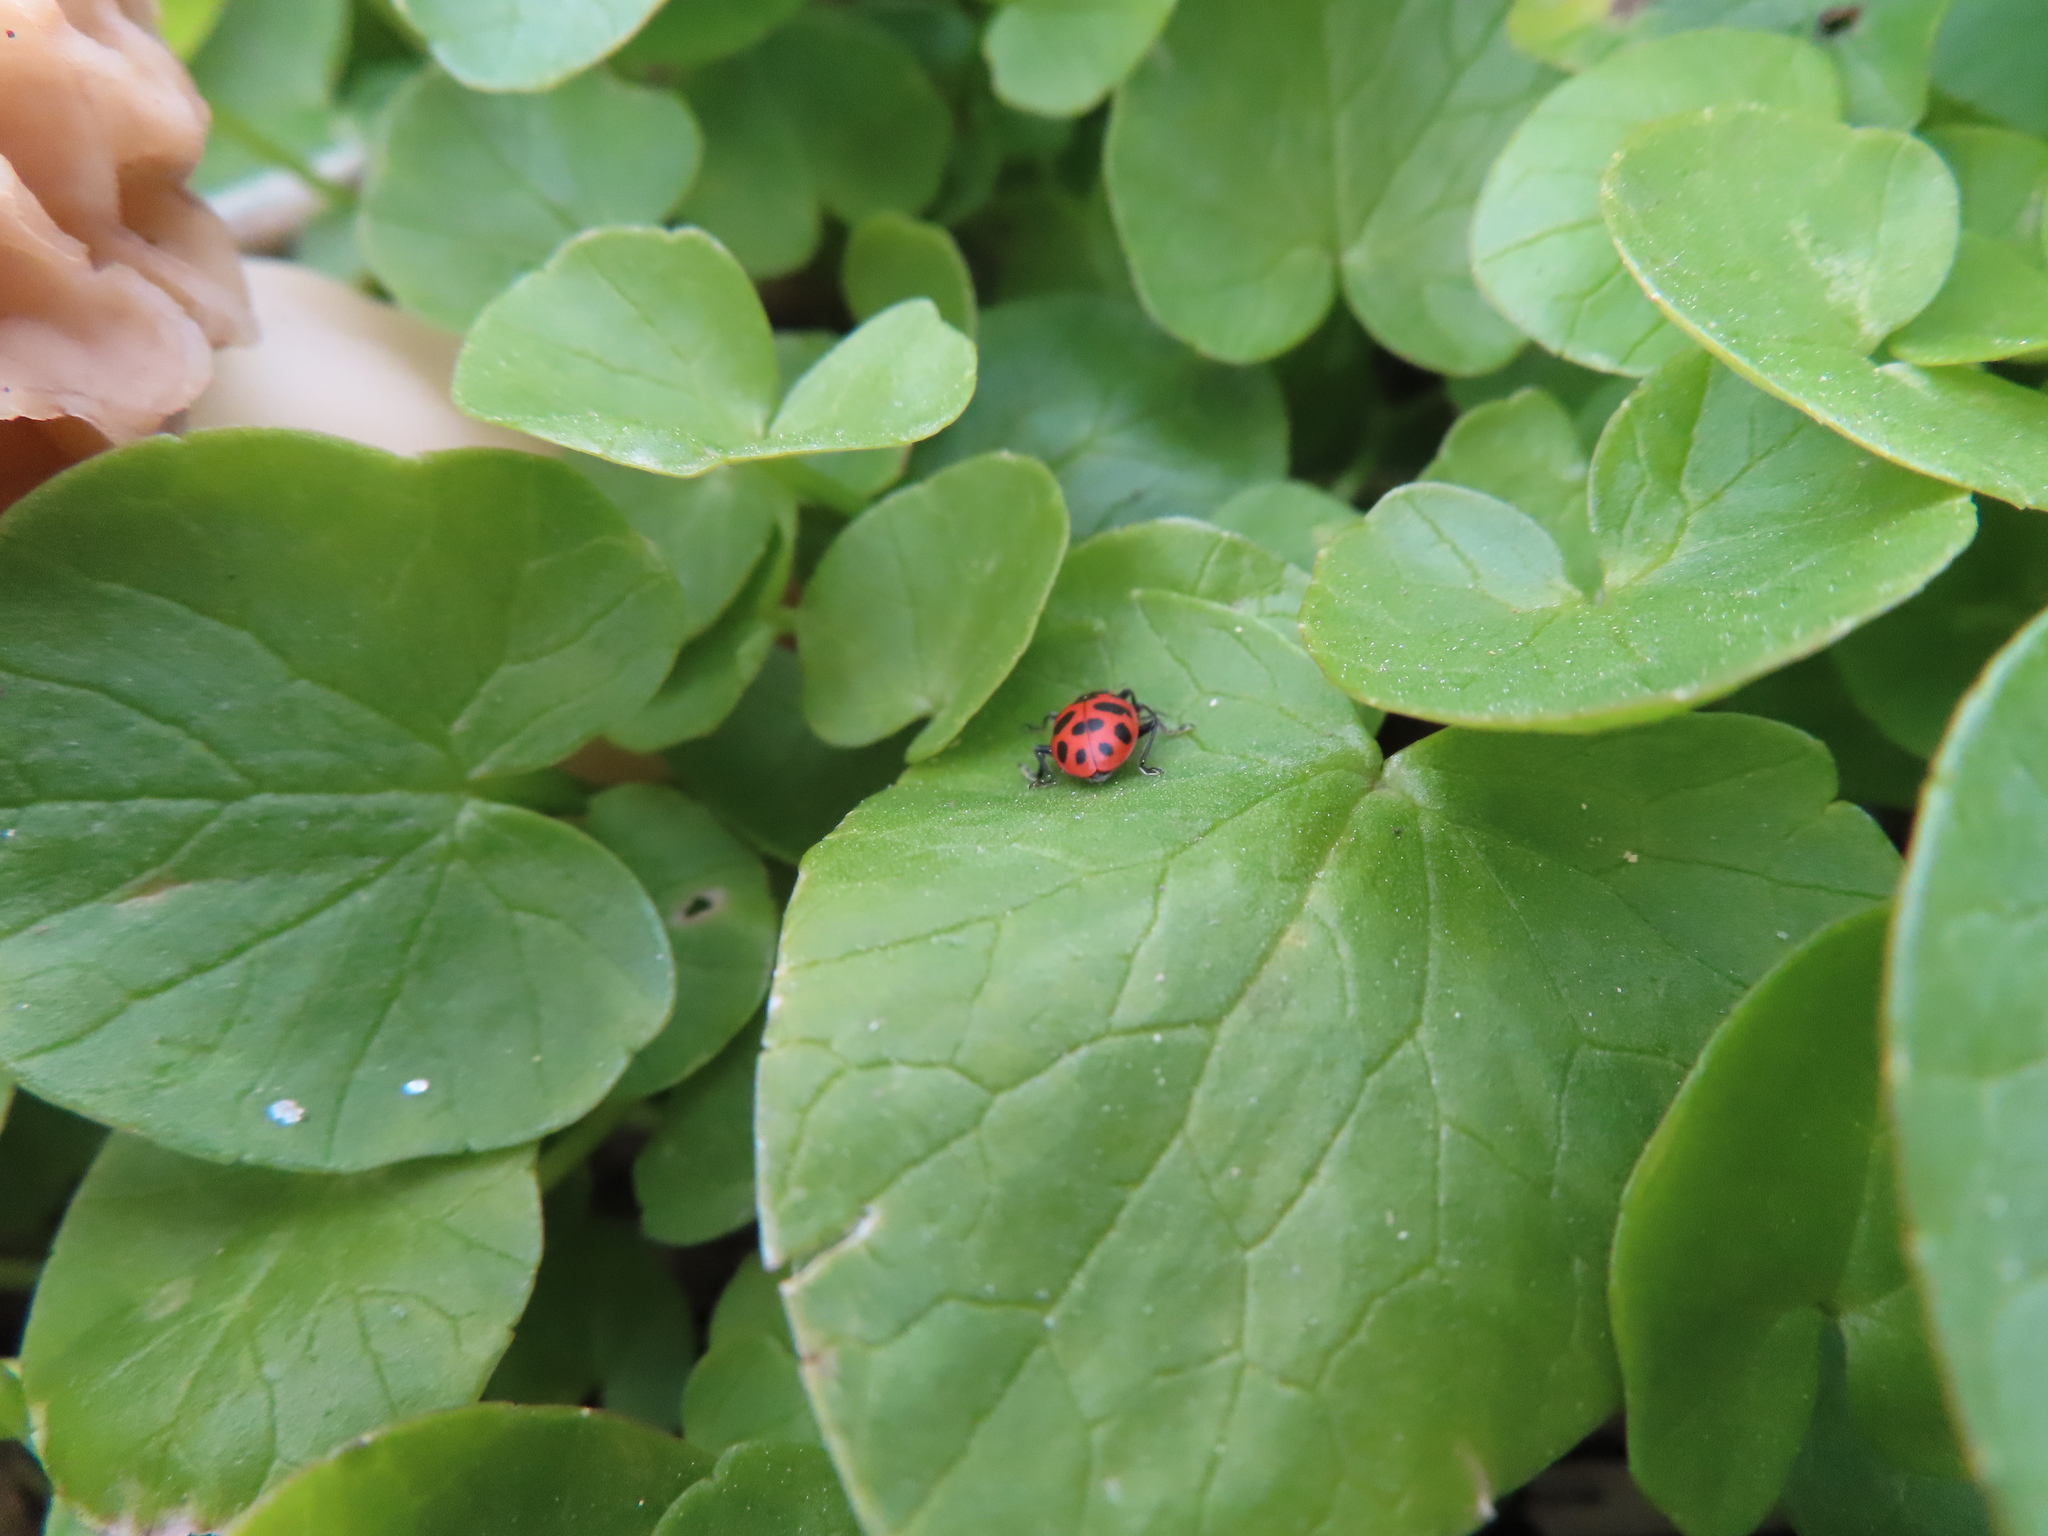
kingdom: Animalia
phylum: Arthropoda
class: Insecta
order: Coleoptera
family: Coccinellidae
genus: Coleomegilla
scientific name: Coleomegilla maculata
